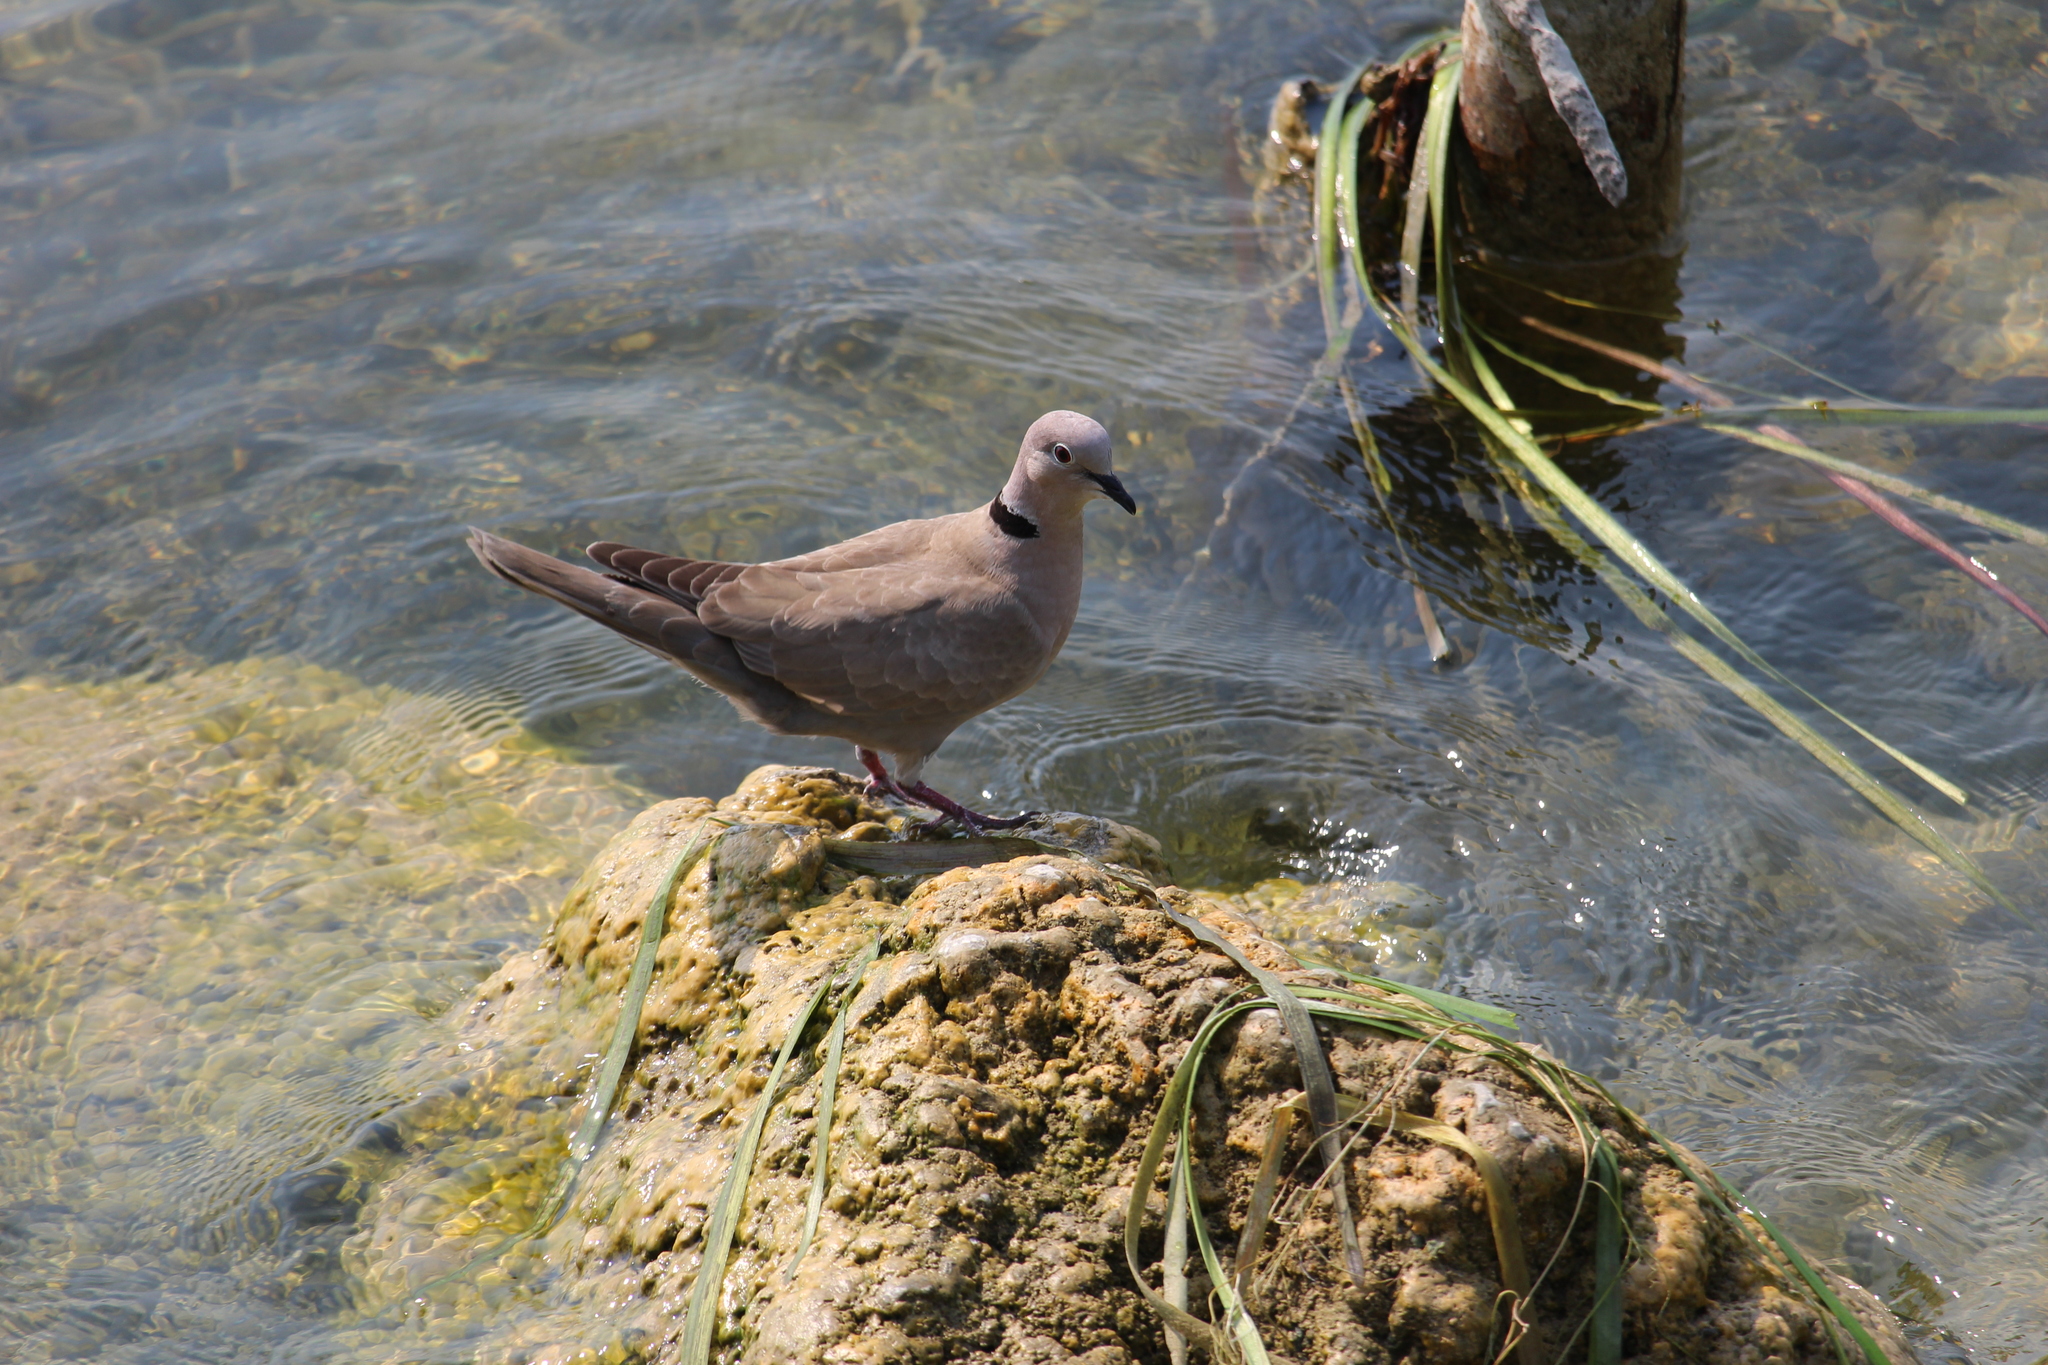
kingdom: Animalia
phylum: Chordata
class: Aves
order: Columbiformes
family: Columbidae
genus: Streptopelia
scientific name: Streptopelia decaocto
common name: Eurasian collared dove
